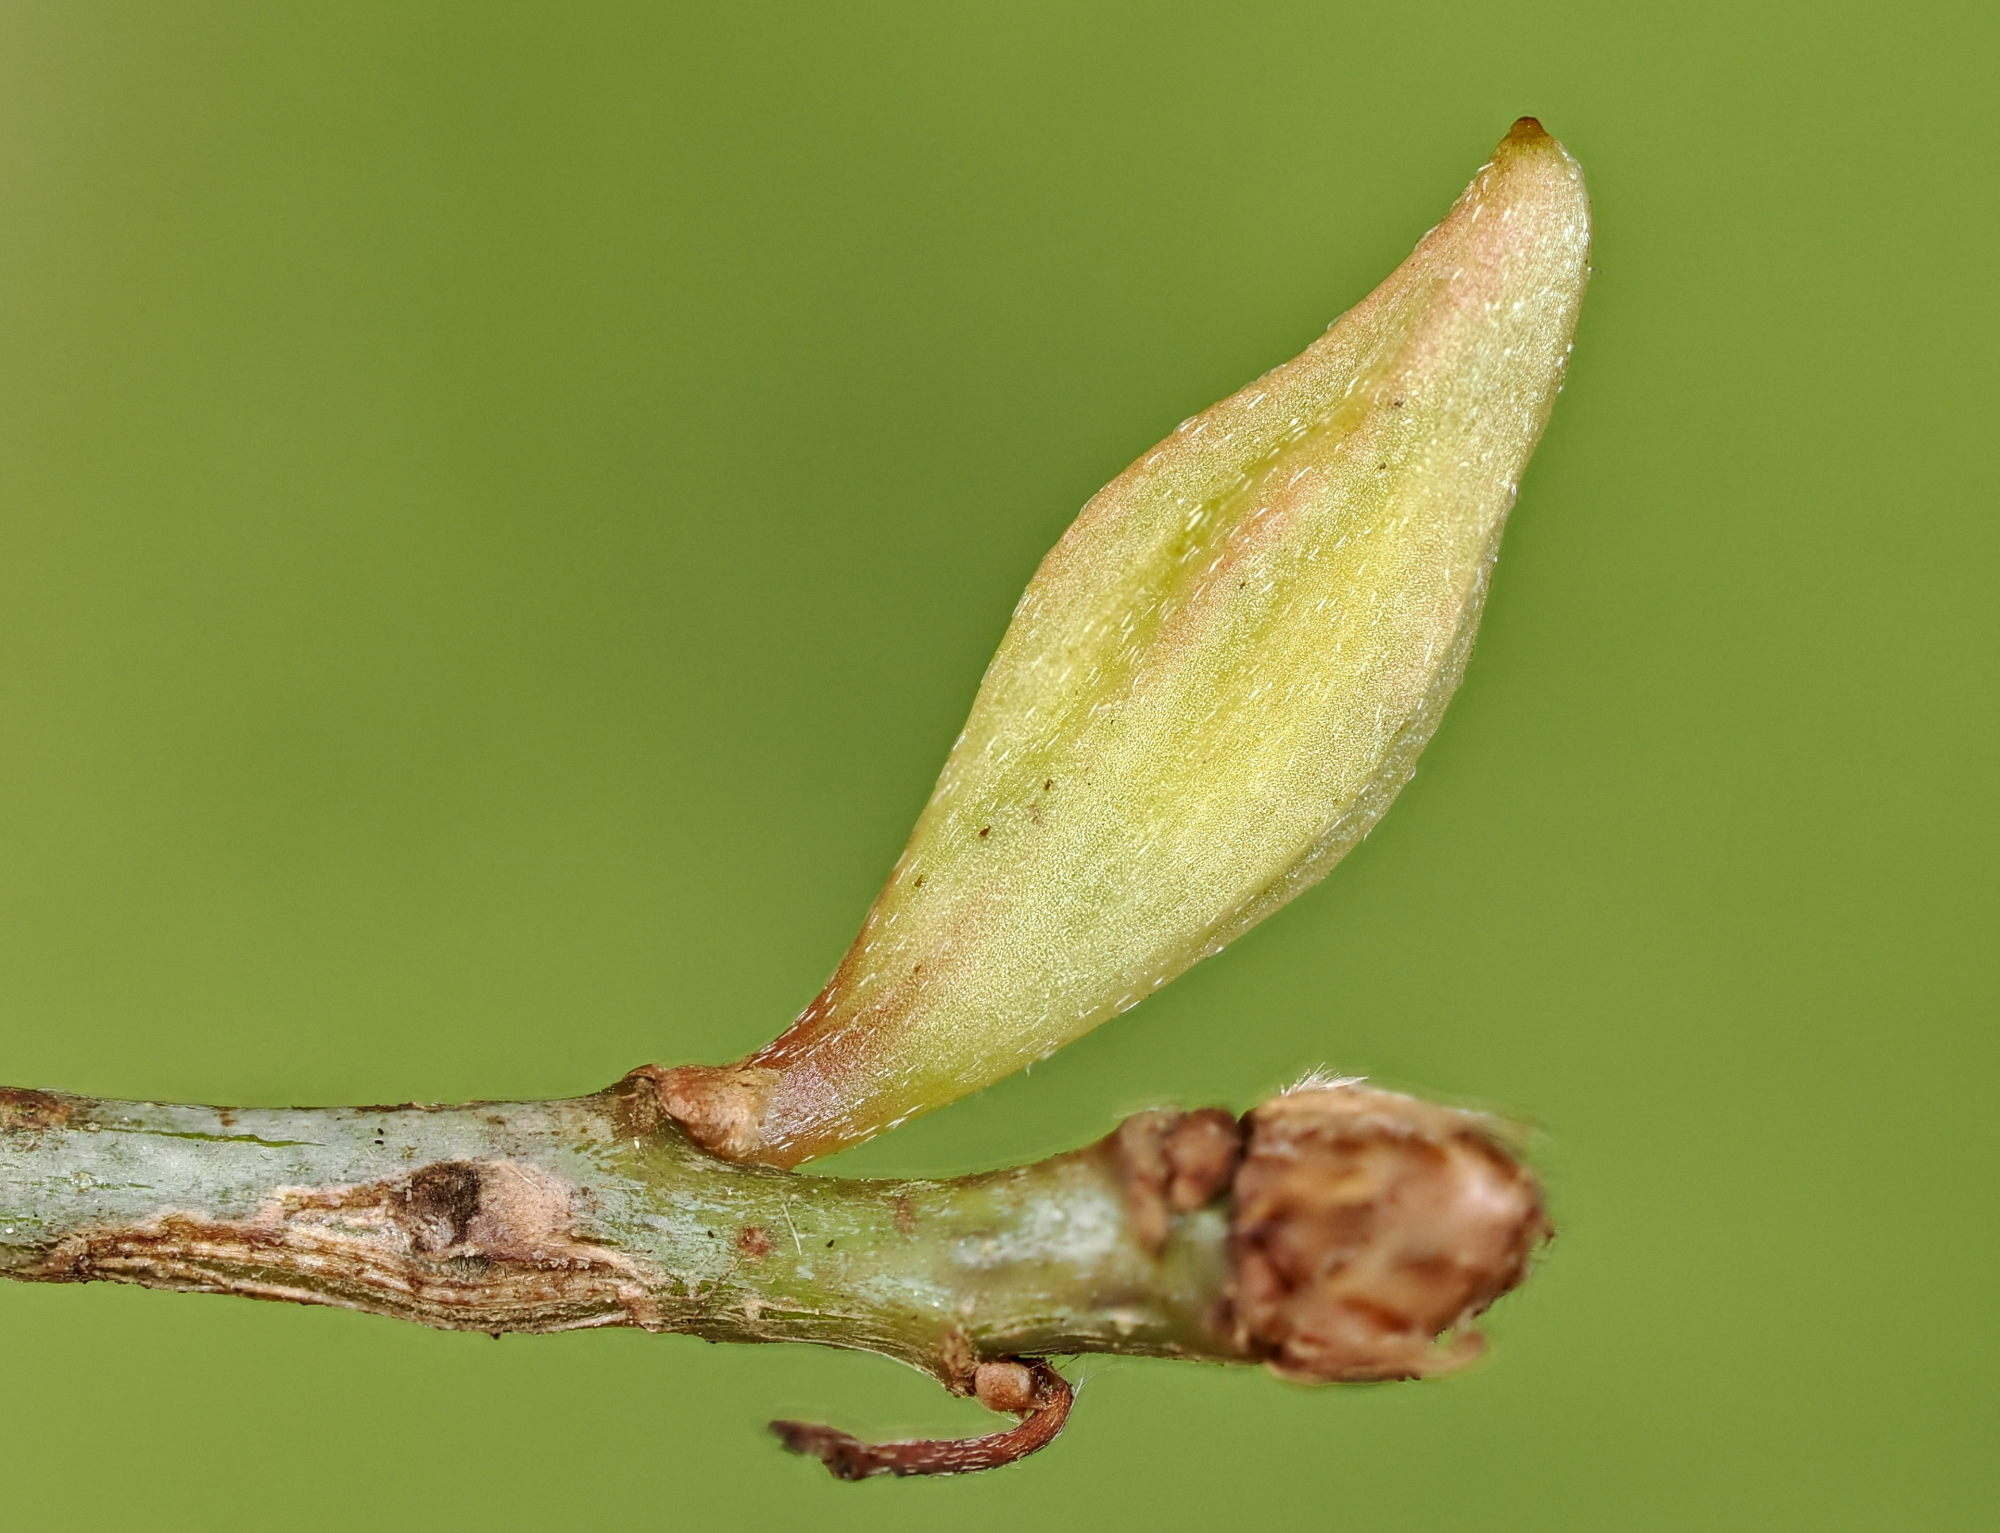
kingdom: Animalia
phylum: Arthropoda
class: Insecta
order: Hymenoptera
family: Cynipidae
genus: Andricus
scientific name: Andricus malpighii
